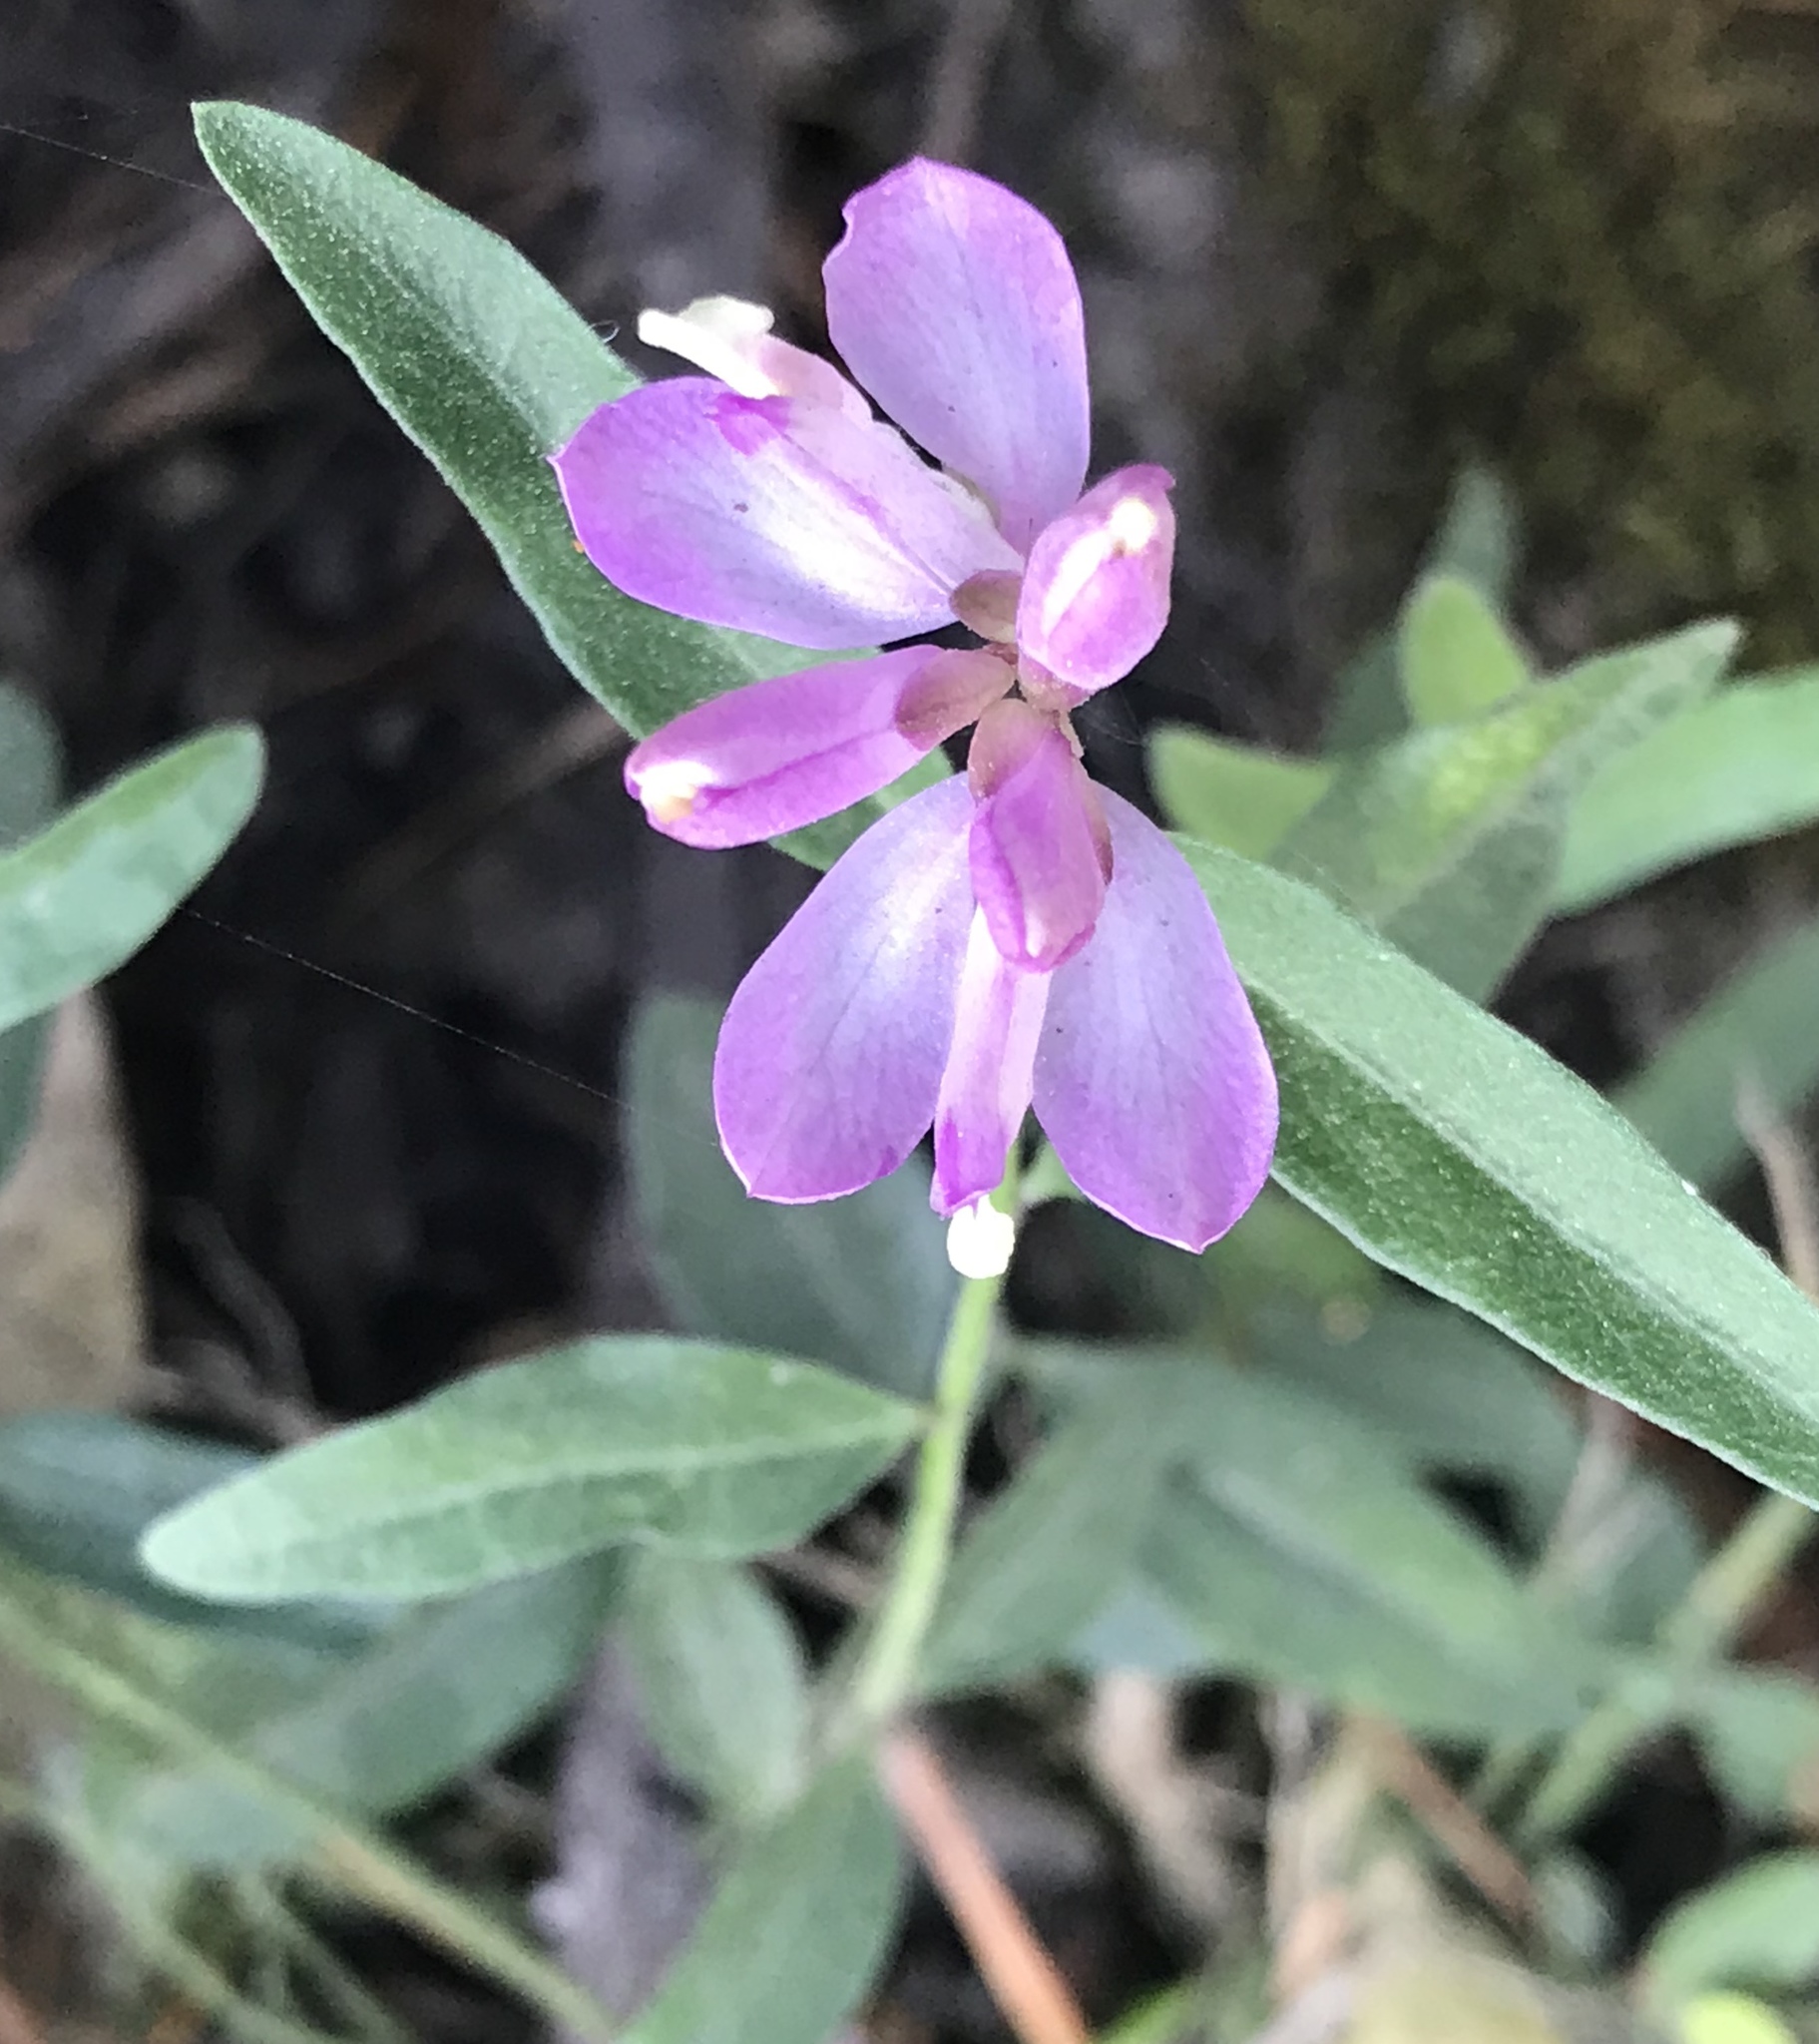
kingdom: Plantae
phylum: Tracheophyta
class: Magnoliopsida
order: Fabales
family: Polygalaceae
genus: Rhinotropis
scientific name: Rhinotropis californica
